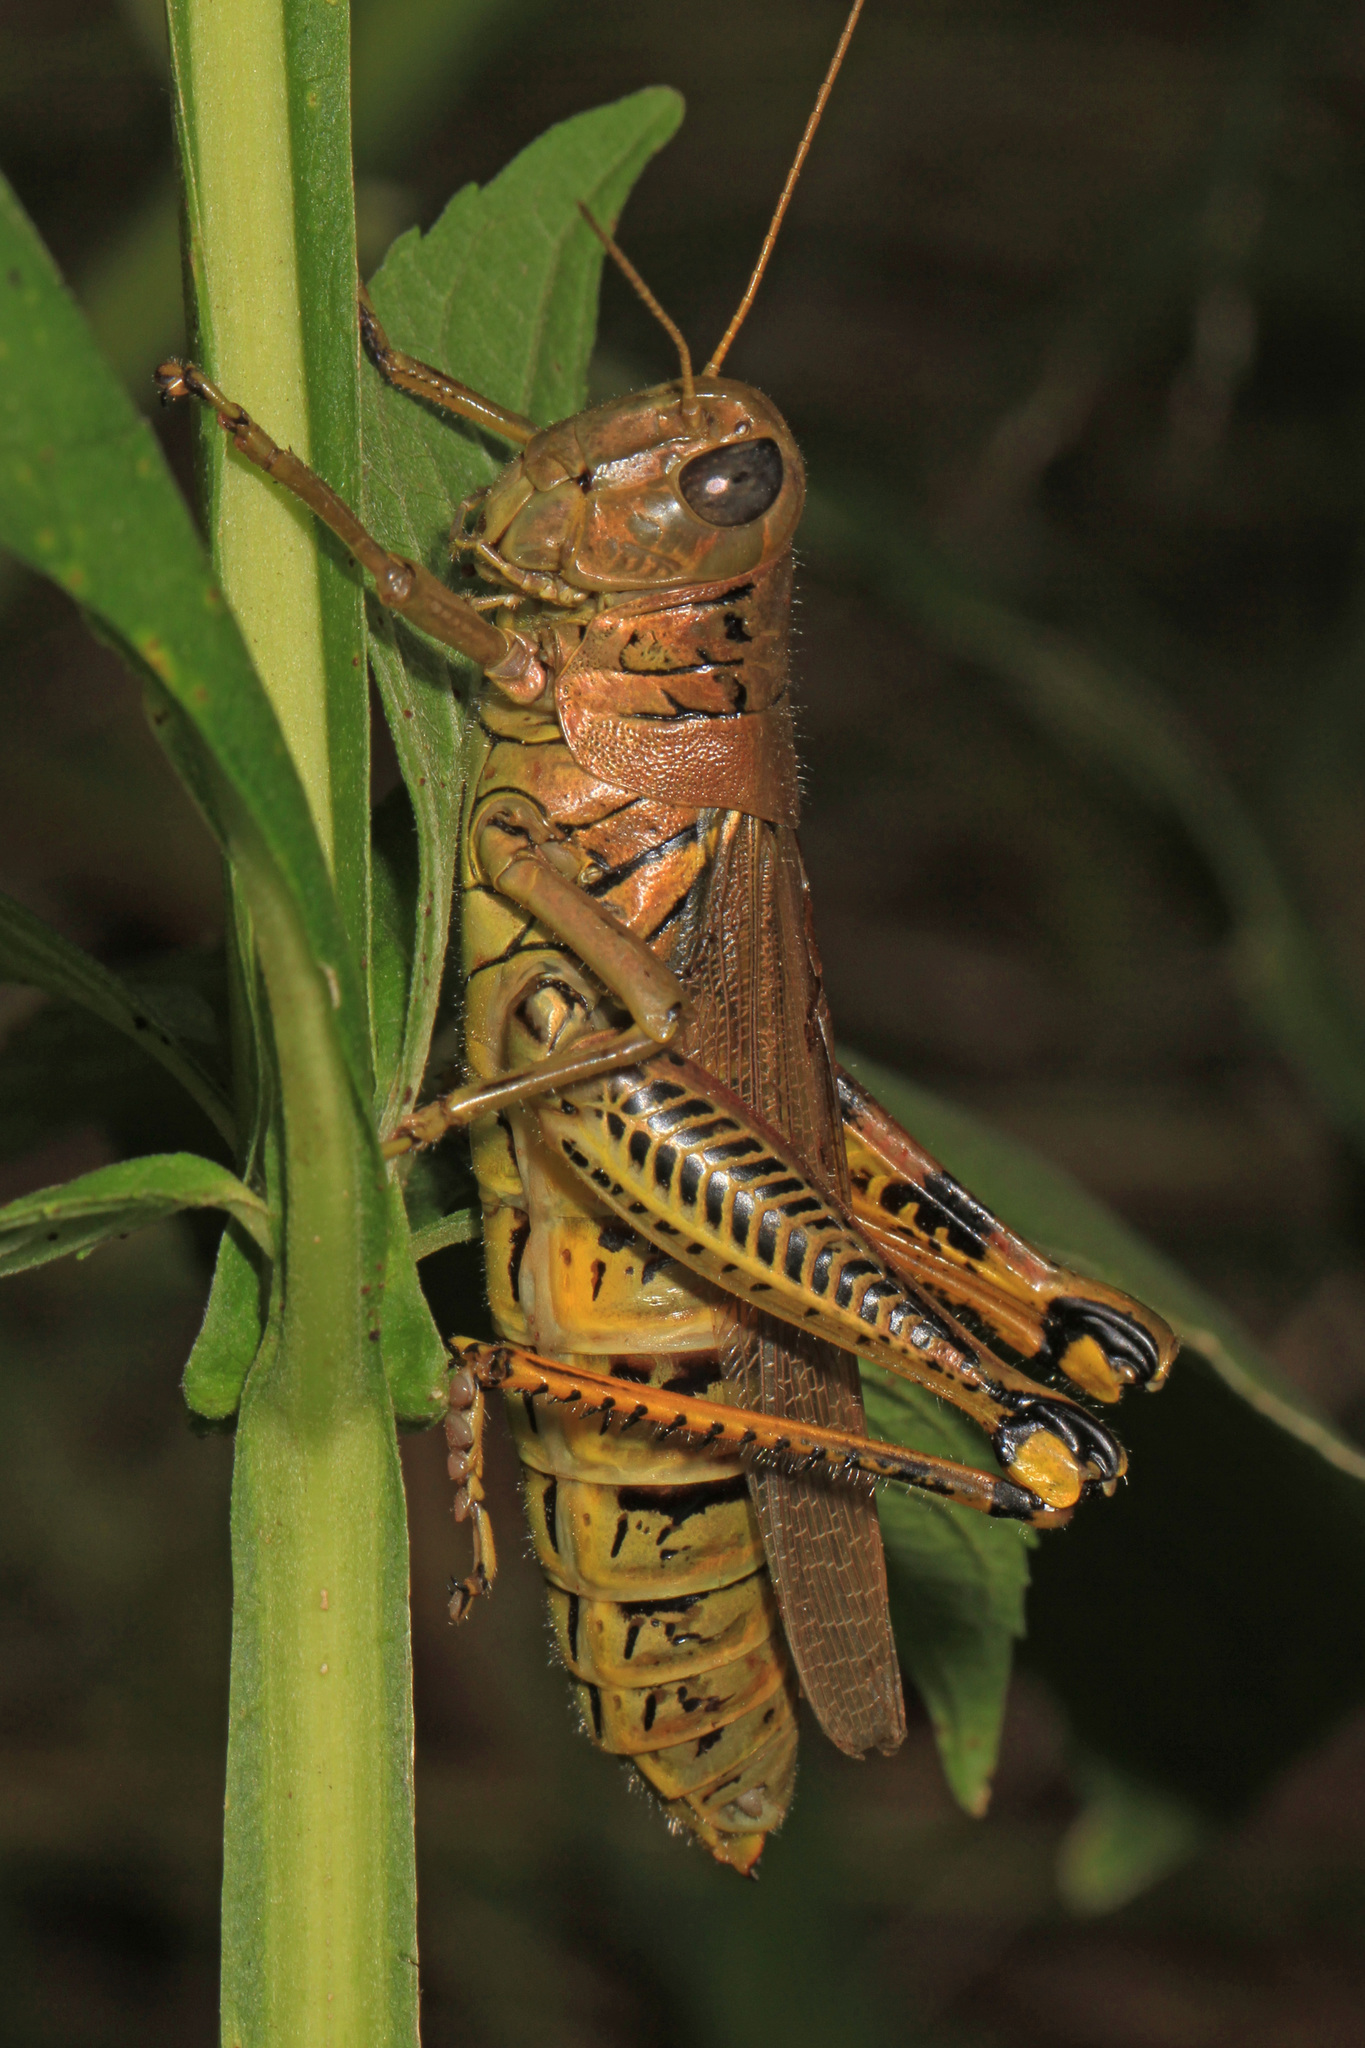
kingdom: Animalia
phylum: Arthropoda
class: Insecta
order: Orthoptera
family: Acrididae
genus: Melanoplus
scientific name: Melanoplus differentialis
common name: Differential grasshopper
